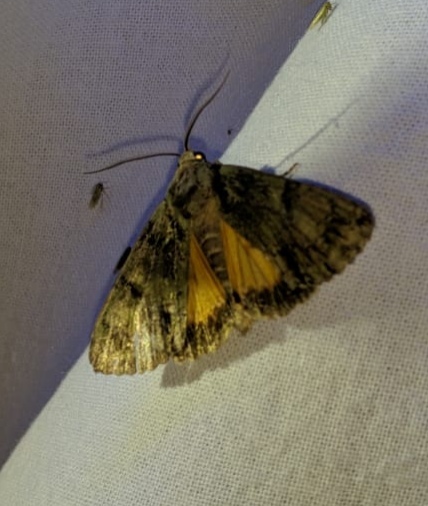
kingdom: Animalia
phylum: Arthropoda
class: Insecta
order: Lepidoptera
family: Noctuidae
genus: Polyphaenis
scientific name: Polyphaenis sericata
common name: Guernsey underwing
